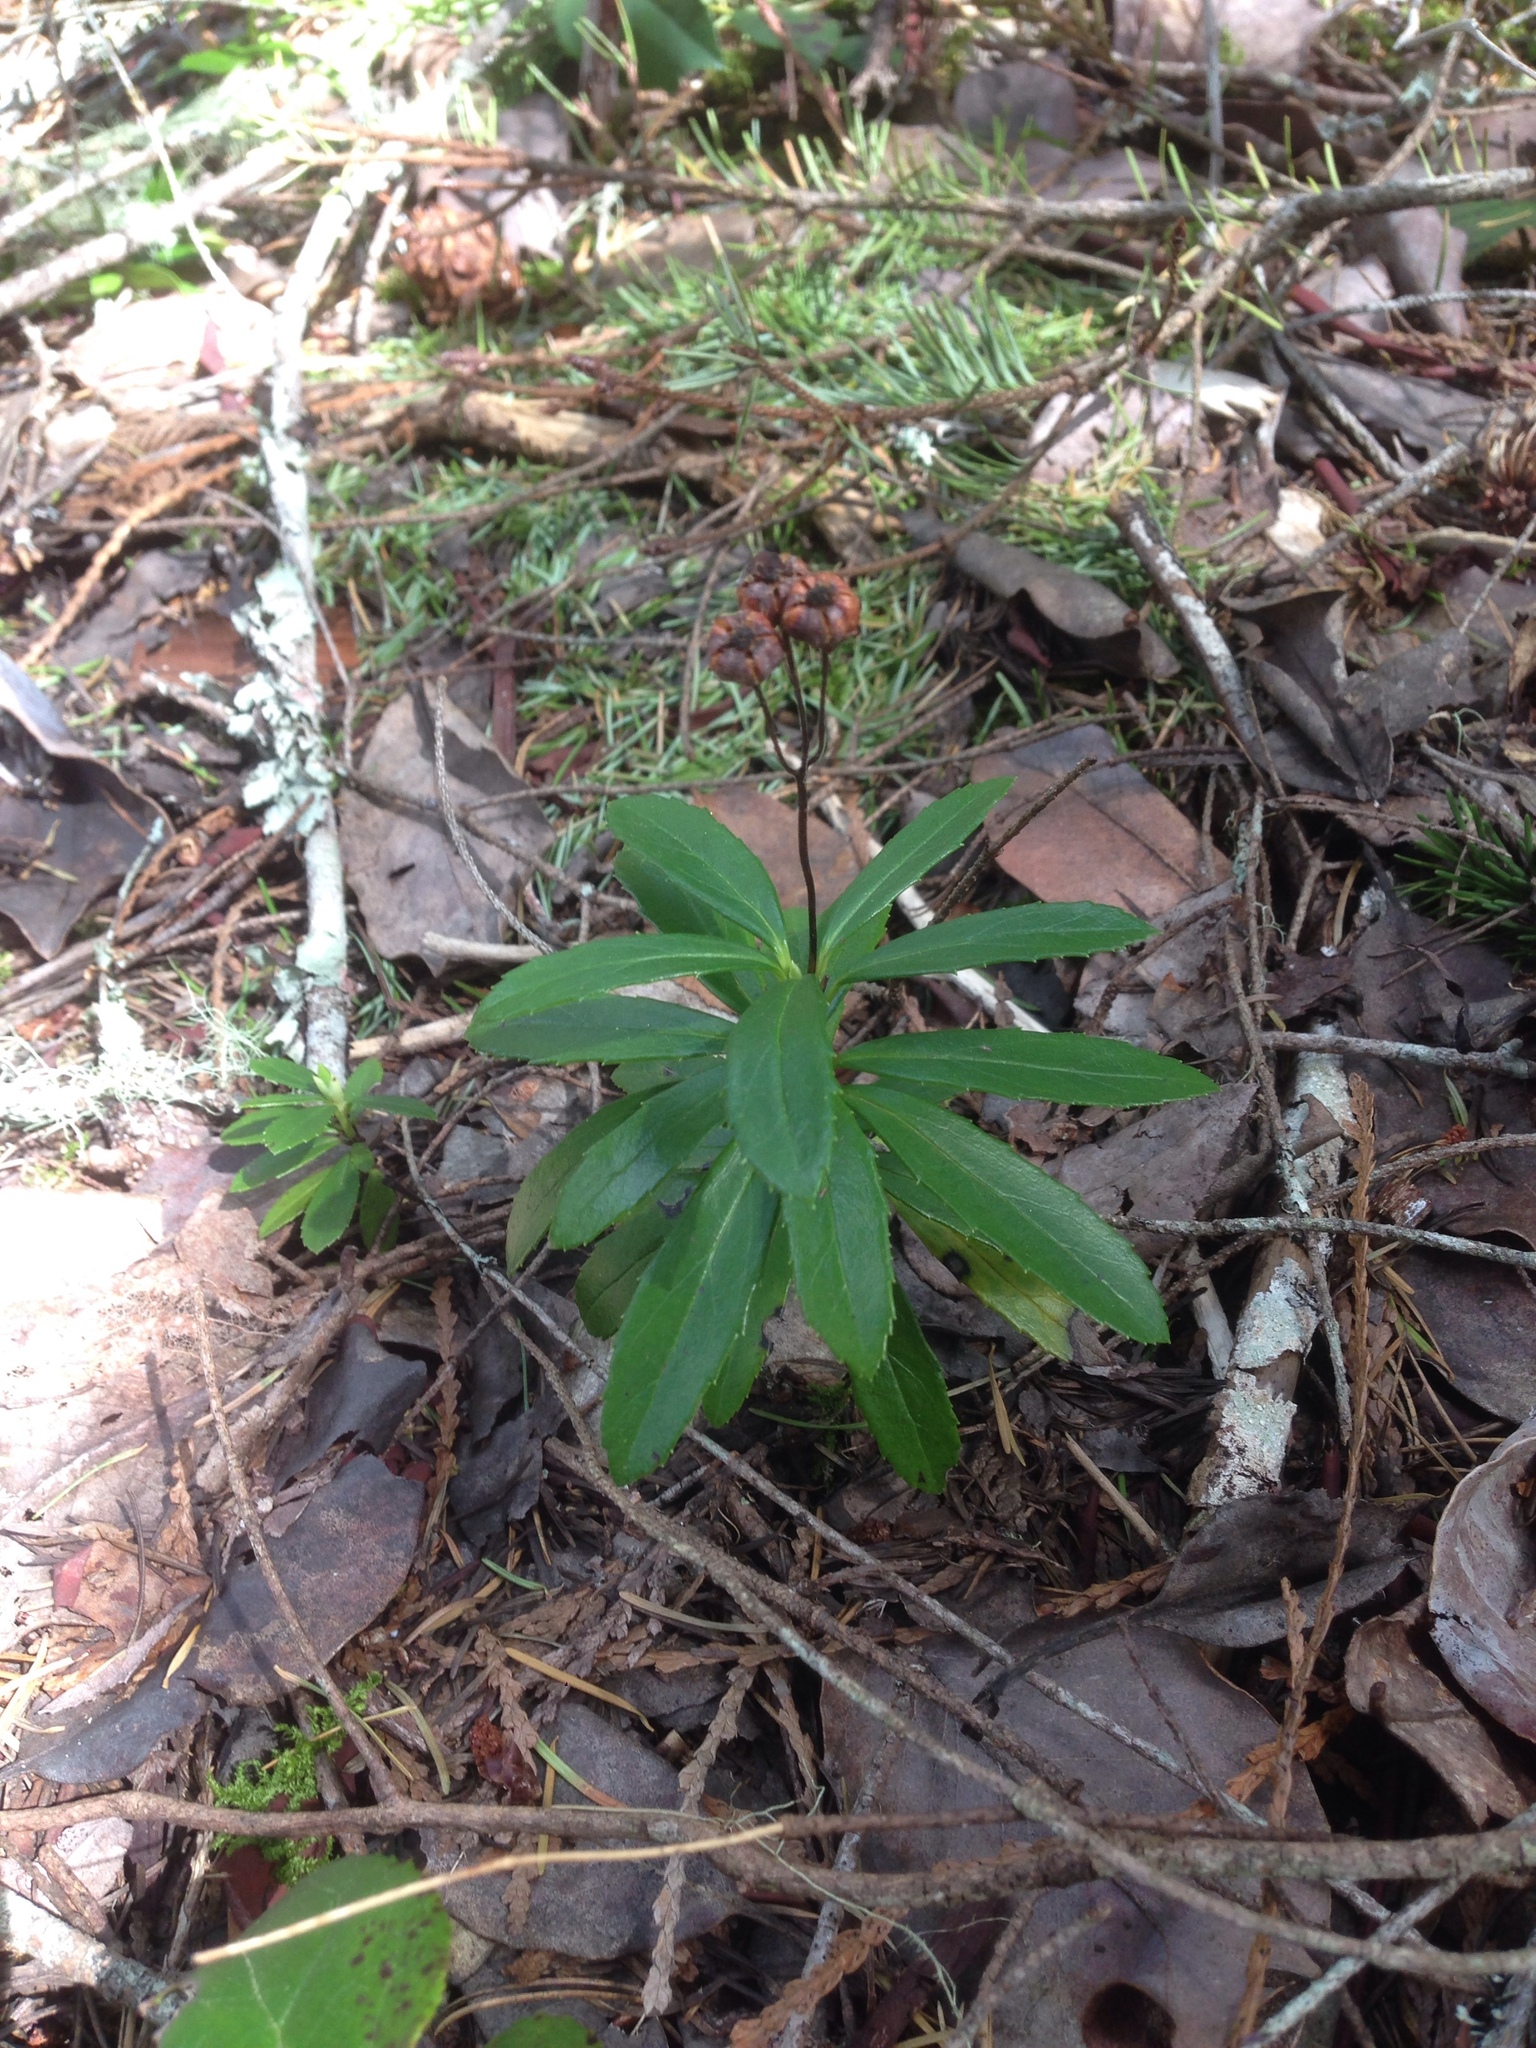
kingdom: Plantae
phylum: Tracheophyta
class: Magnoliopsida
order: Ericales
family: Ericaceae
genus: Chimaphila
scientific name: Chimaphila umbellata
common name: Pipsissewa
